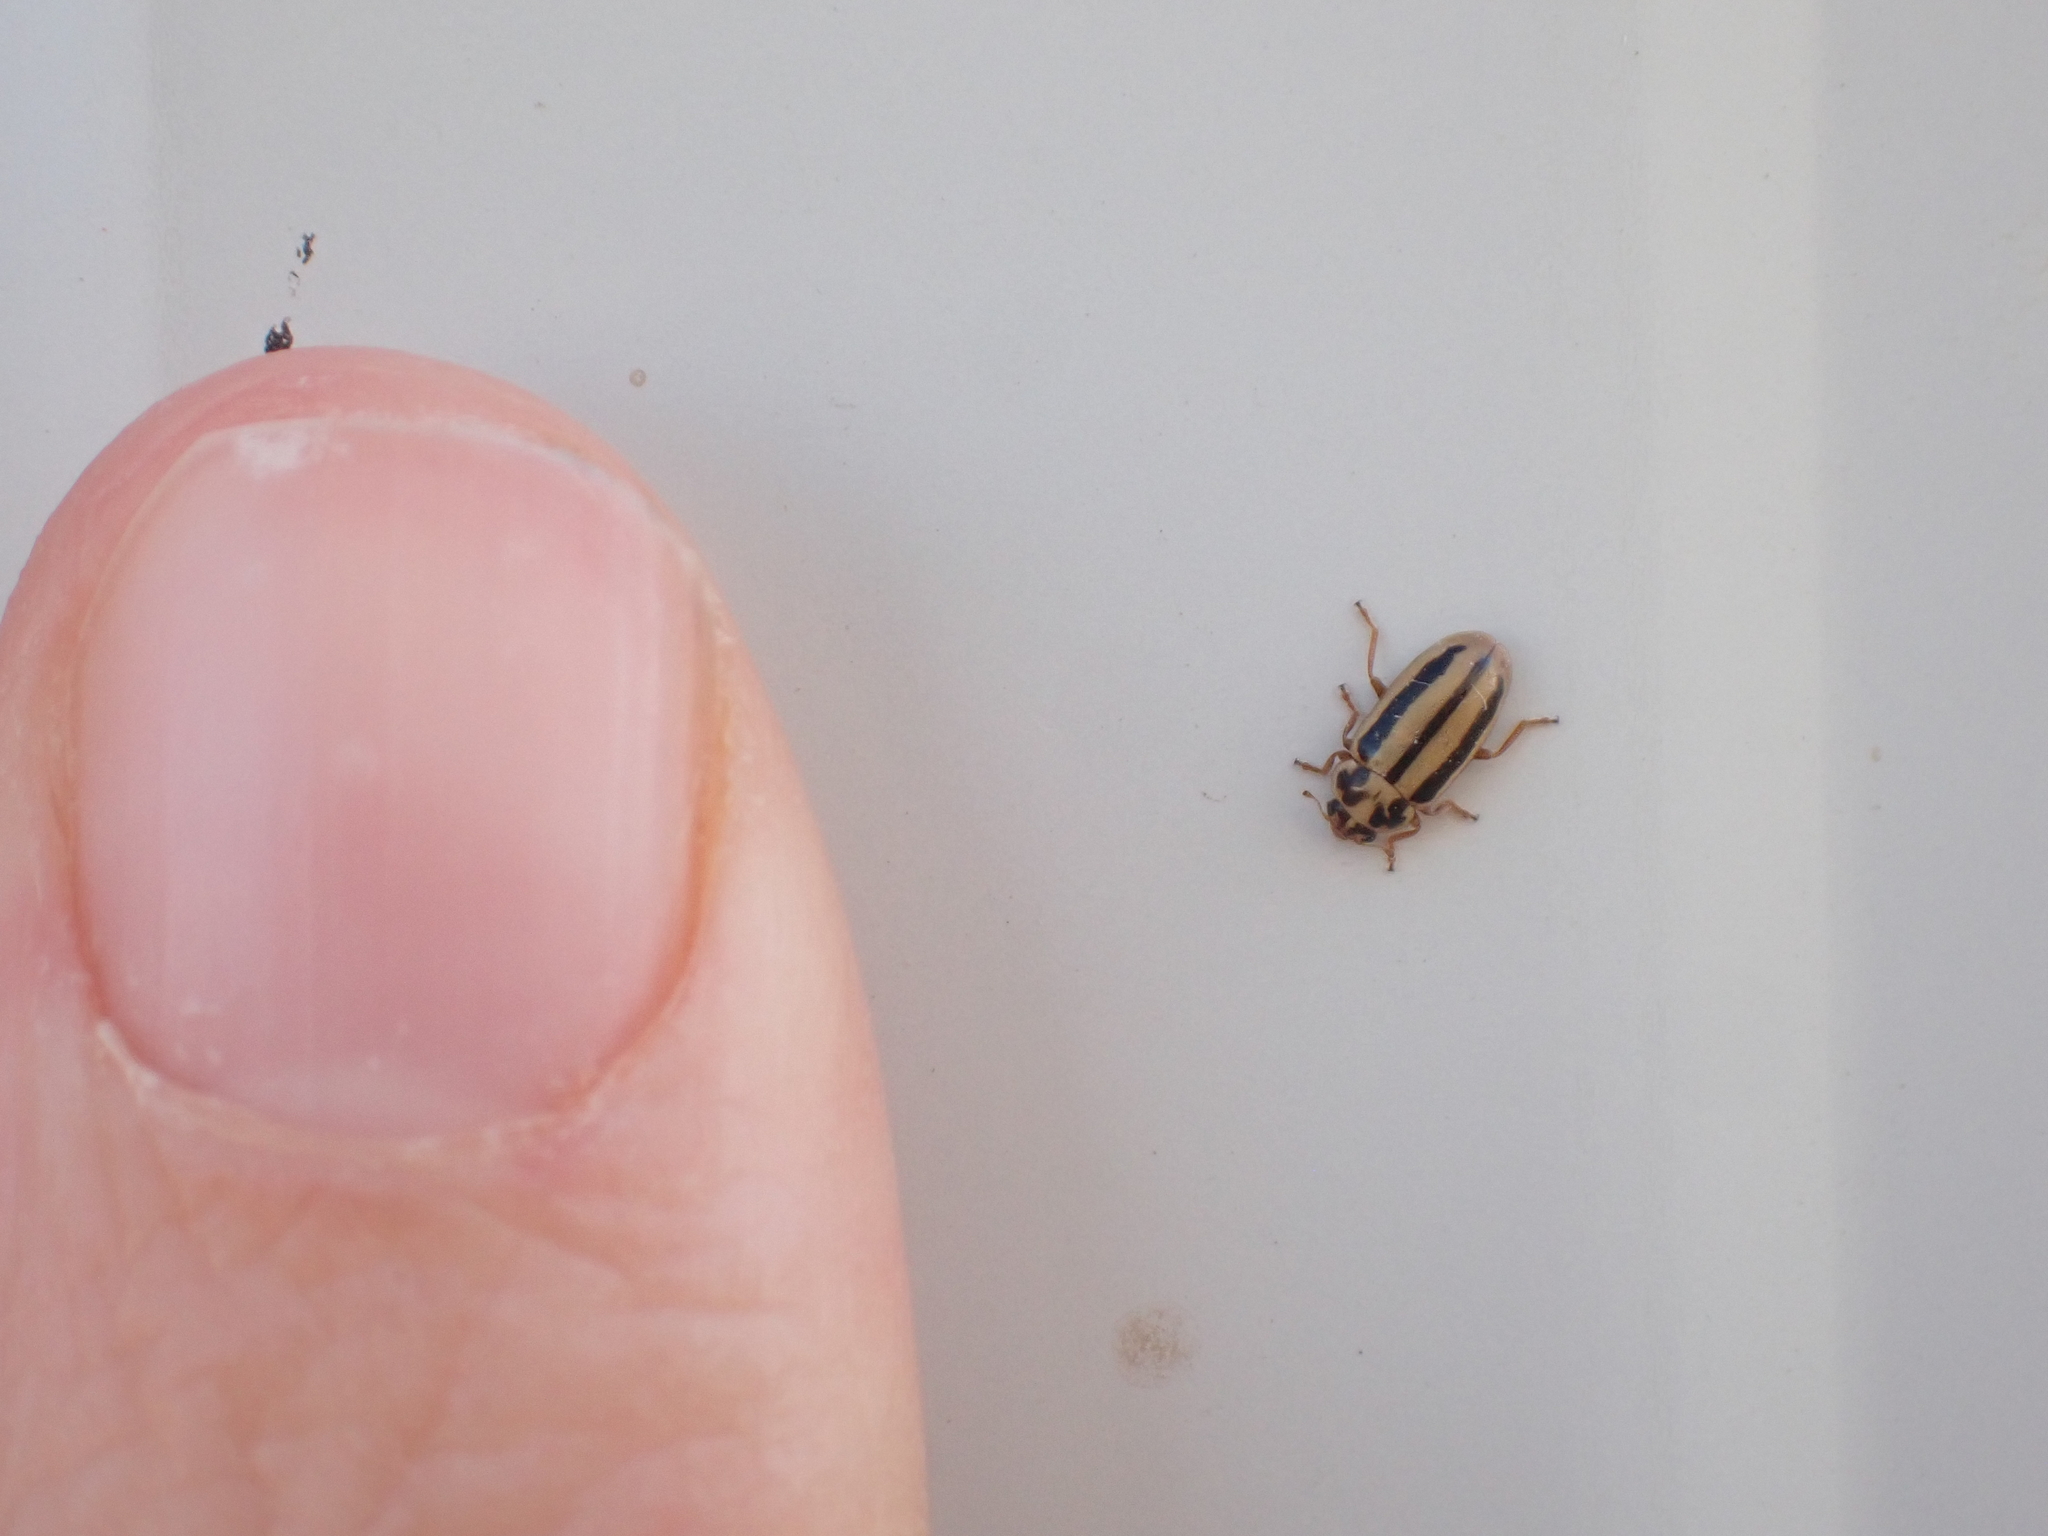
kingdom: Animalia
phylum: Arthropoda
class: Insecta
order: Coleoptera
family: Coccinellidae
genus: Macronaemia
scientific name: Macronaemia episcopalis
